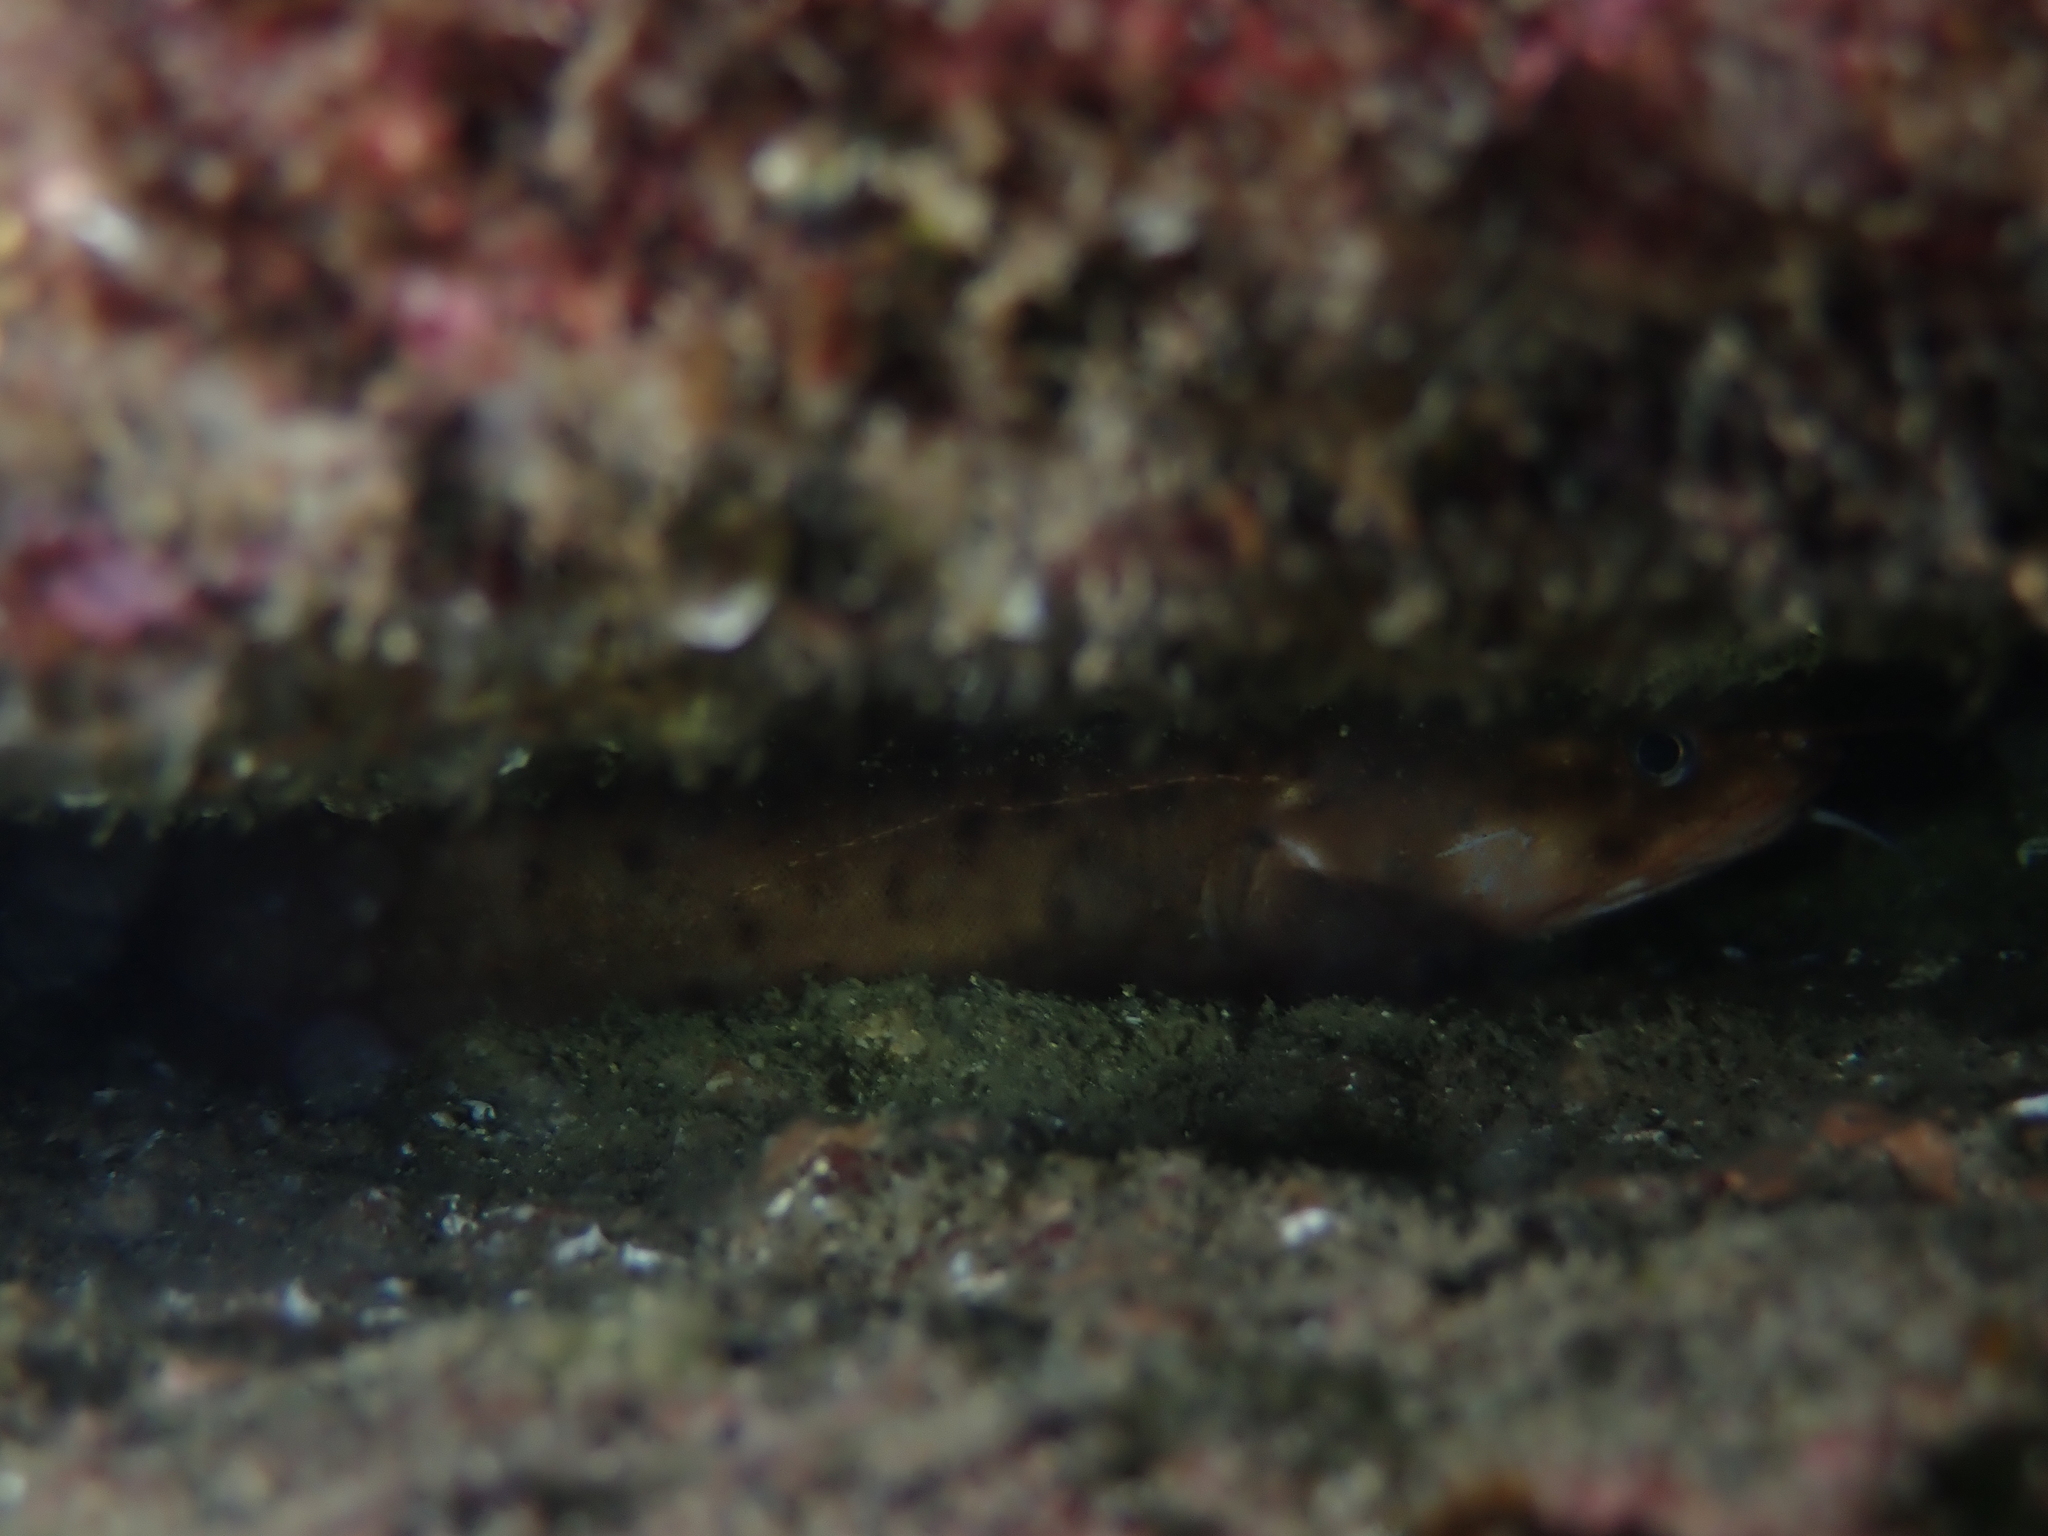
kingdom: Animalia
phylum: Chordata
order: Gadiformes
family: Lotidae
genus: Gaidropsarus
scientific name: Gaidropsarus vulgaris
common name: Three-bearded rockling
